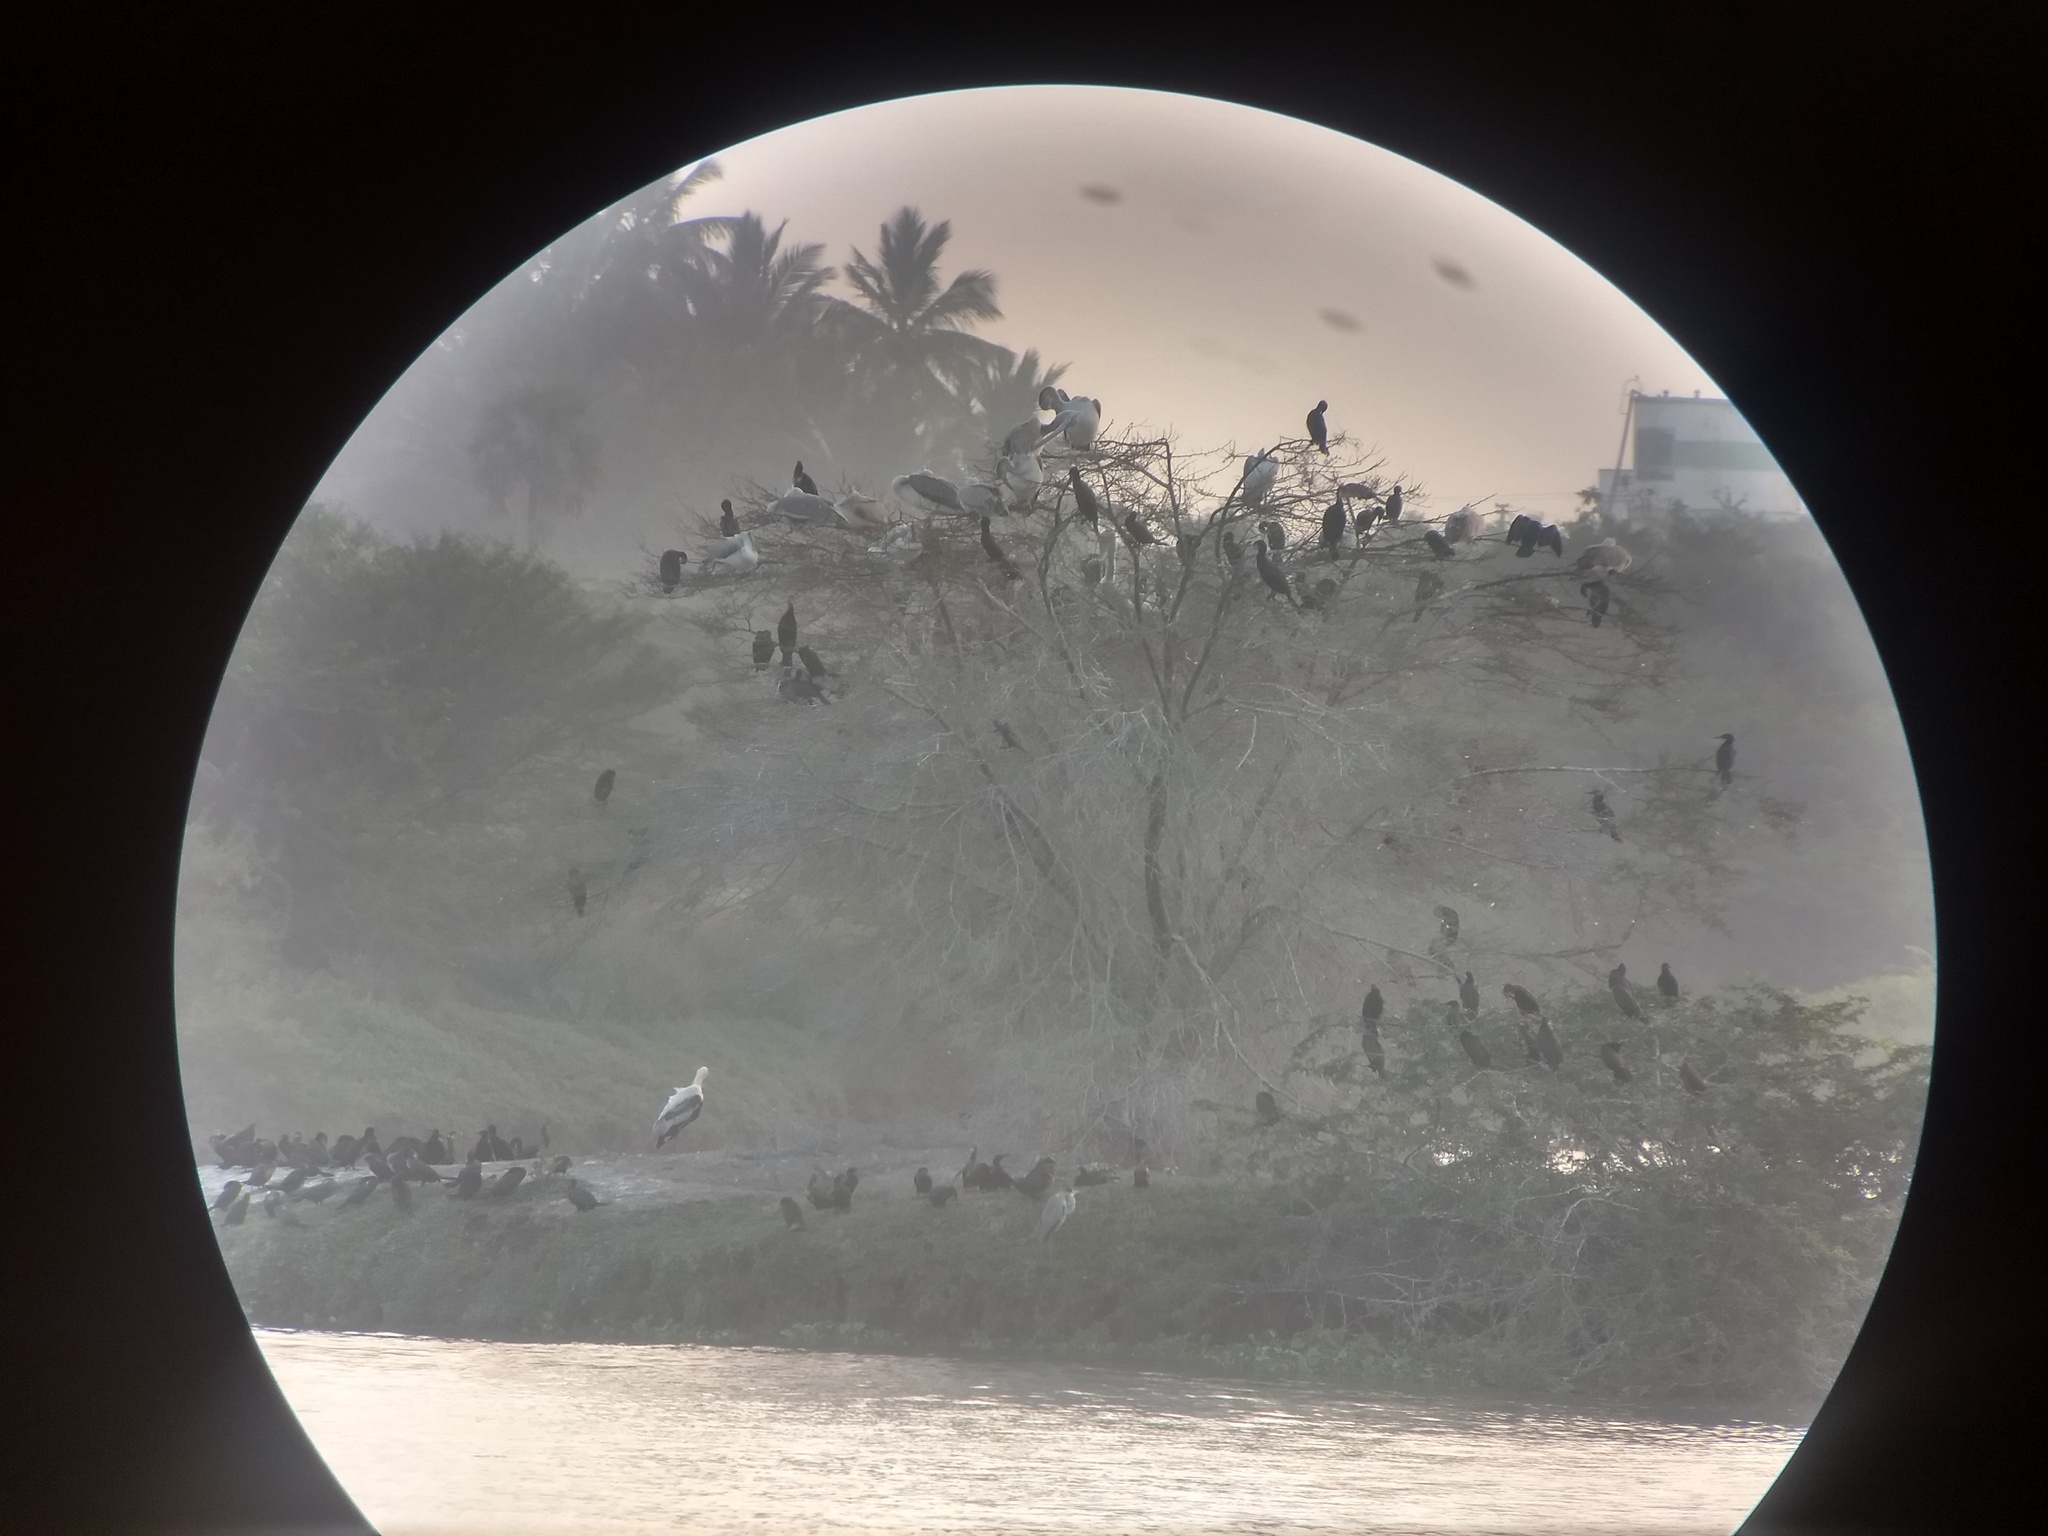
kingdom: Animalia
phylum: Chordata
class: Aves
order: Pelecaniformes
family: Pelecanidae
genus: Pelecanus
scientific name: Pelecanus philippensis
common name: Spot-billed pelican
